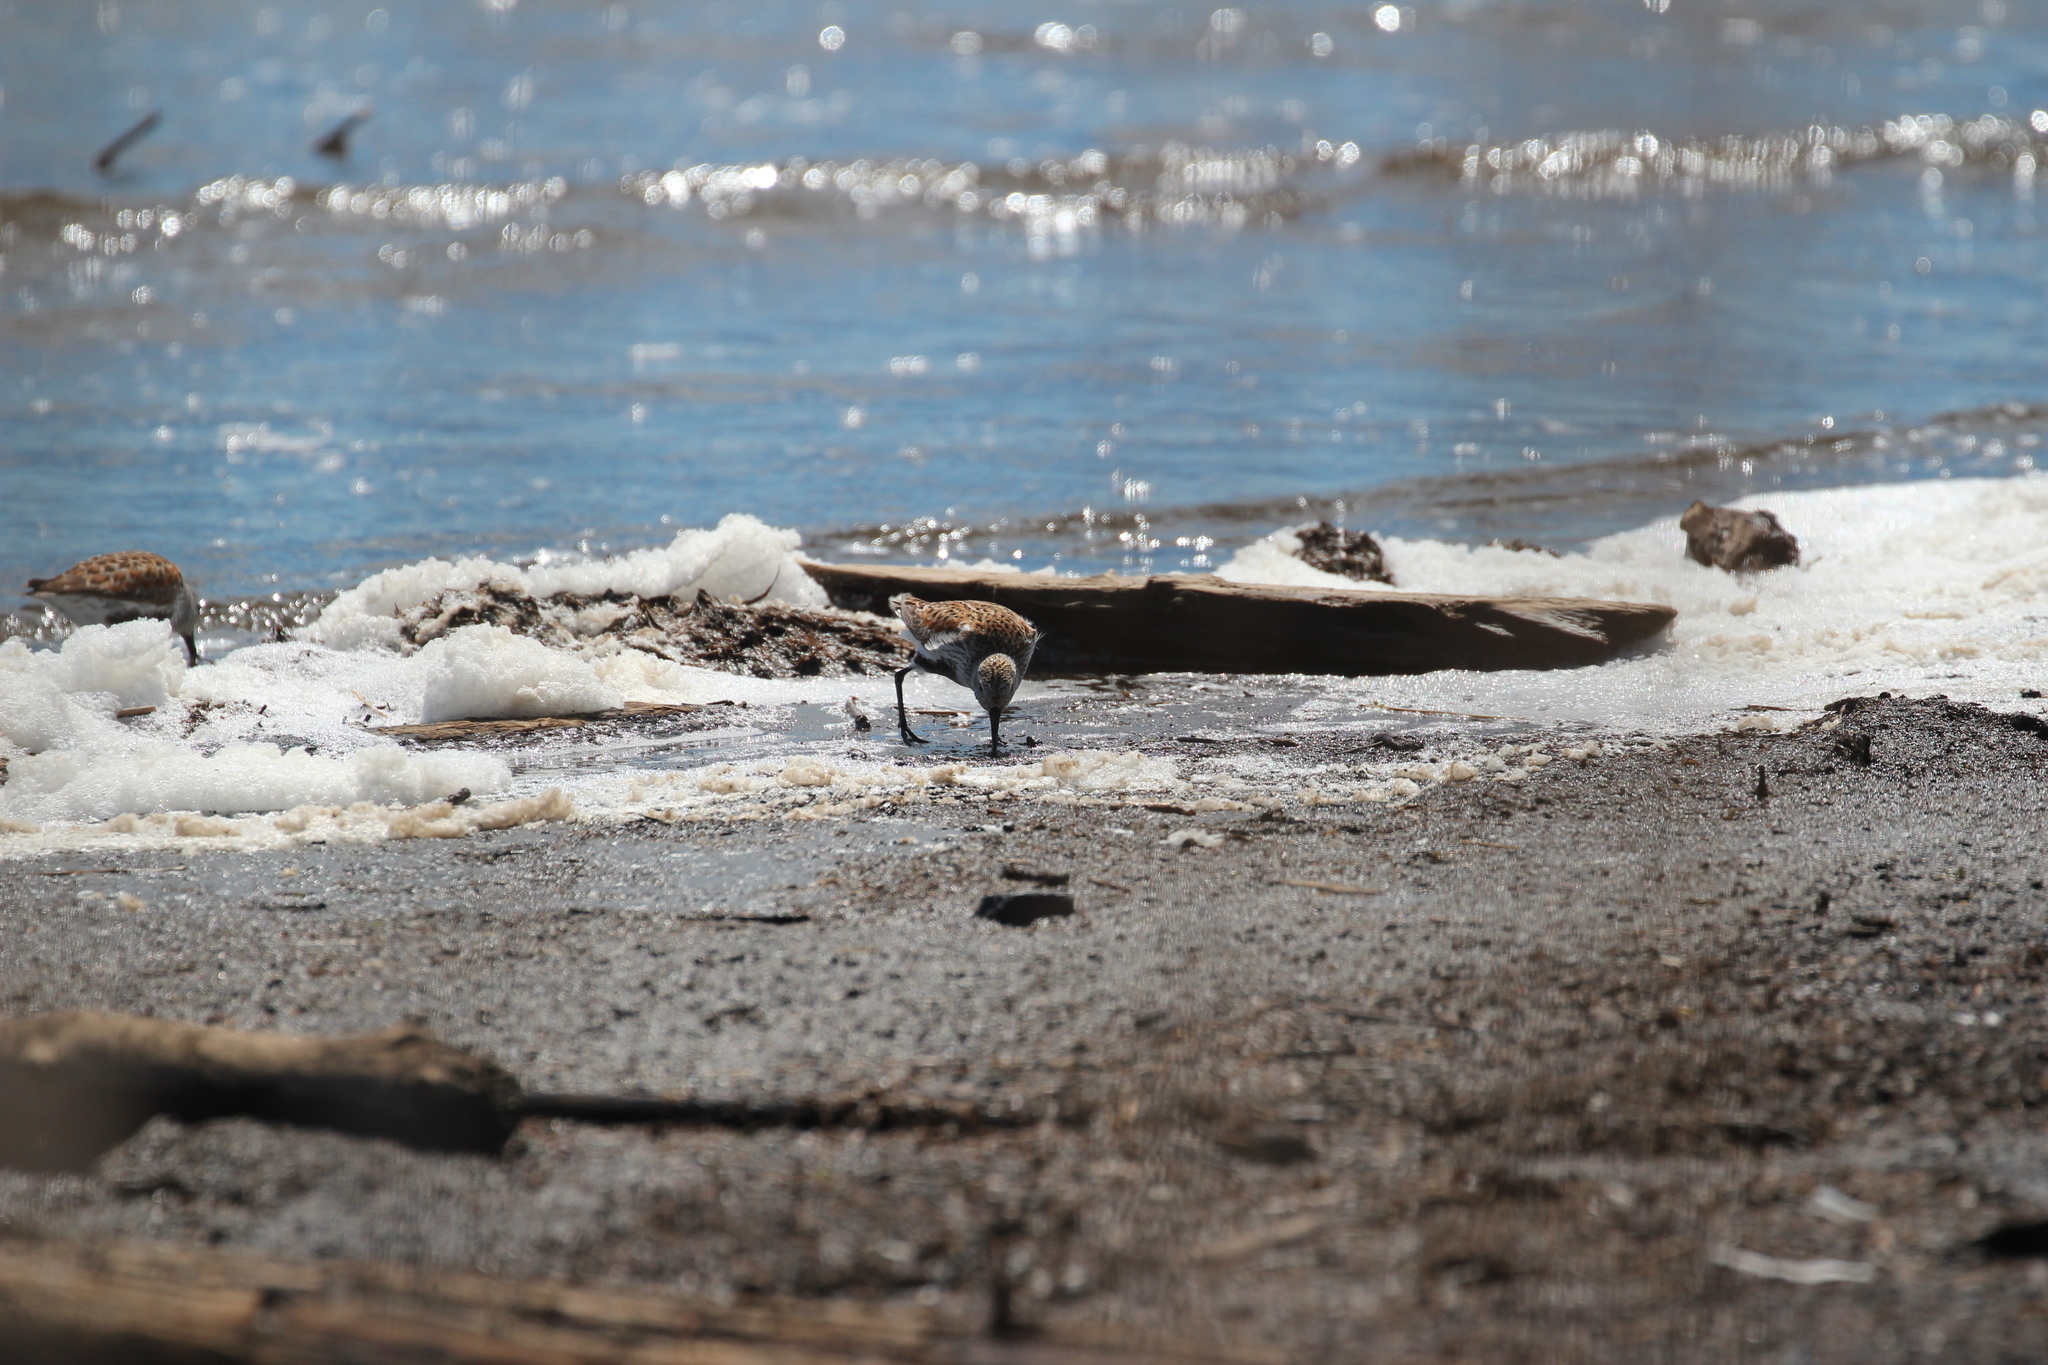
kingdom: Animalia
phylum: Chordata
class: Aves
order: Charadriiformes
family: Scolopacidae
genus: Calidris
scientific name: Calidris alpina
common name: Dunlin
